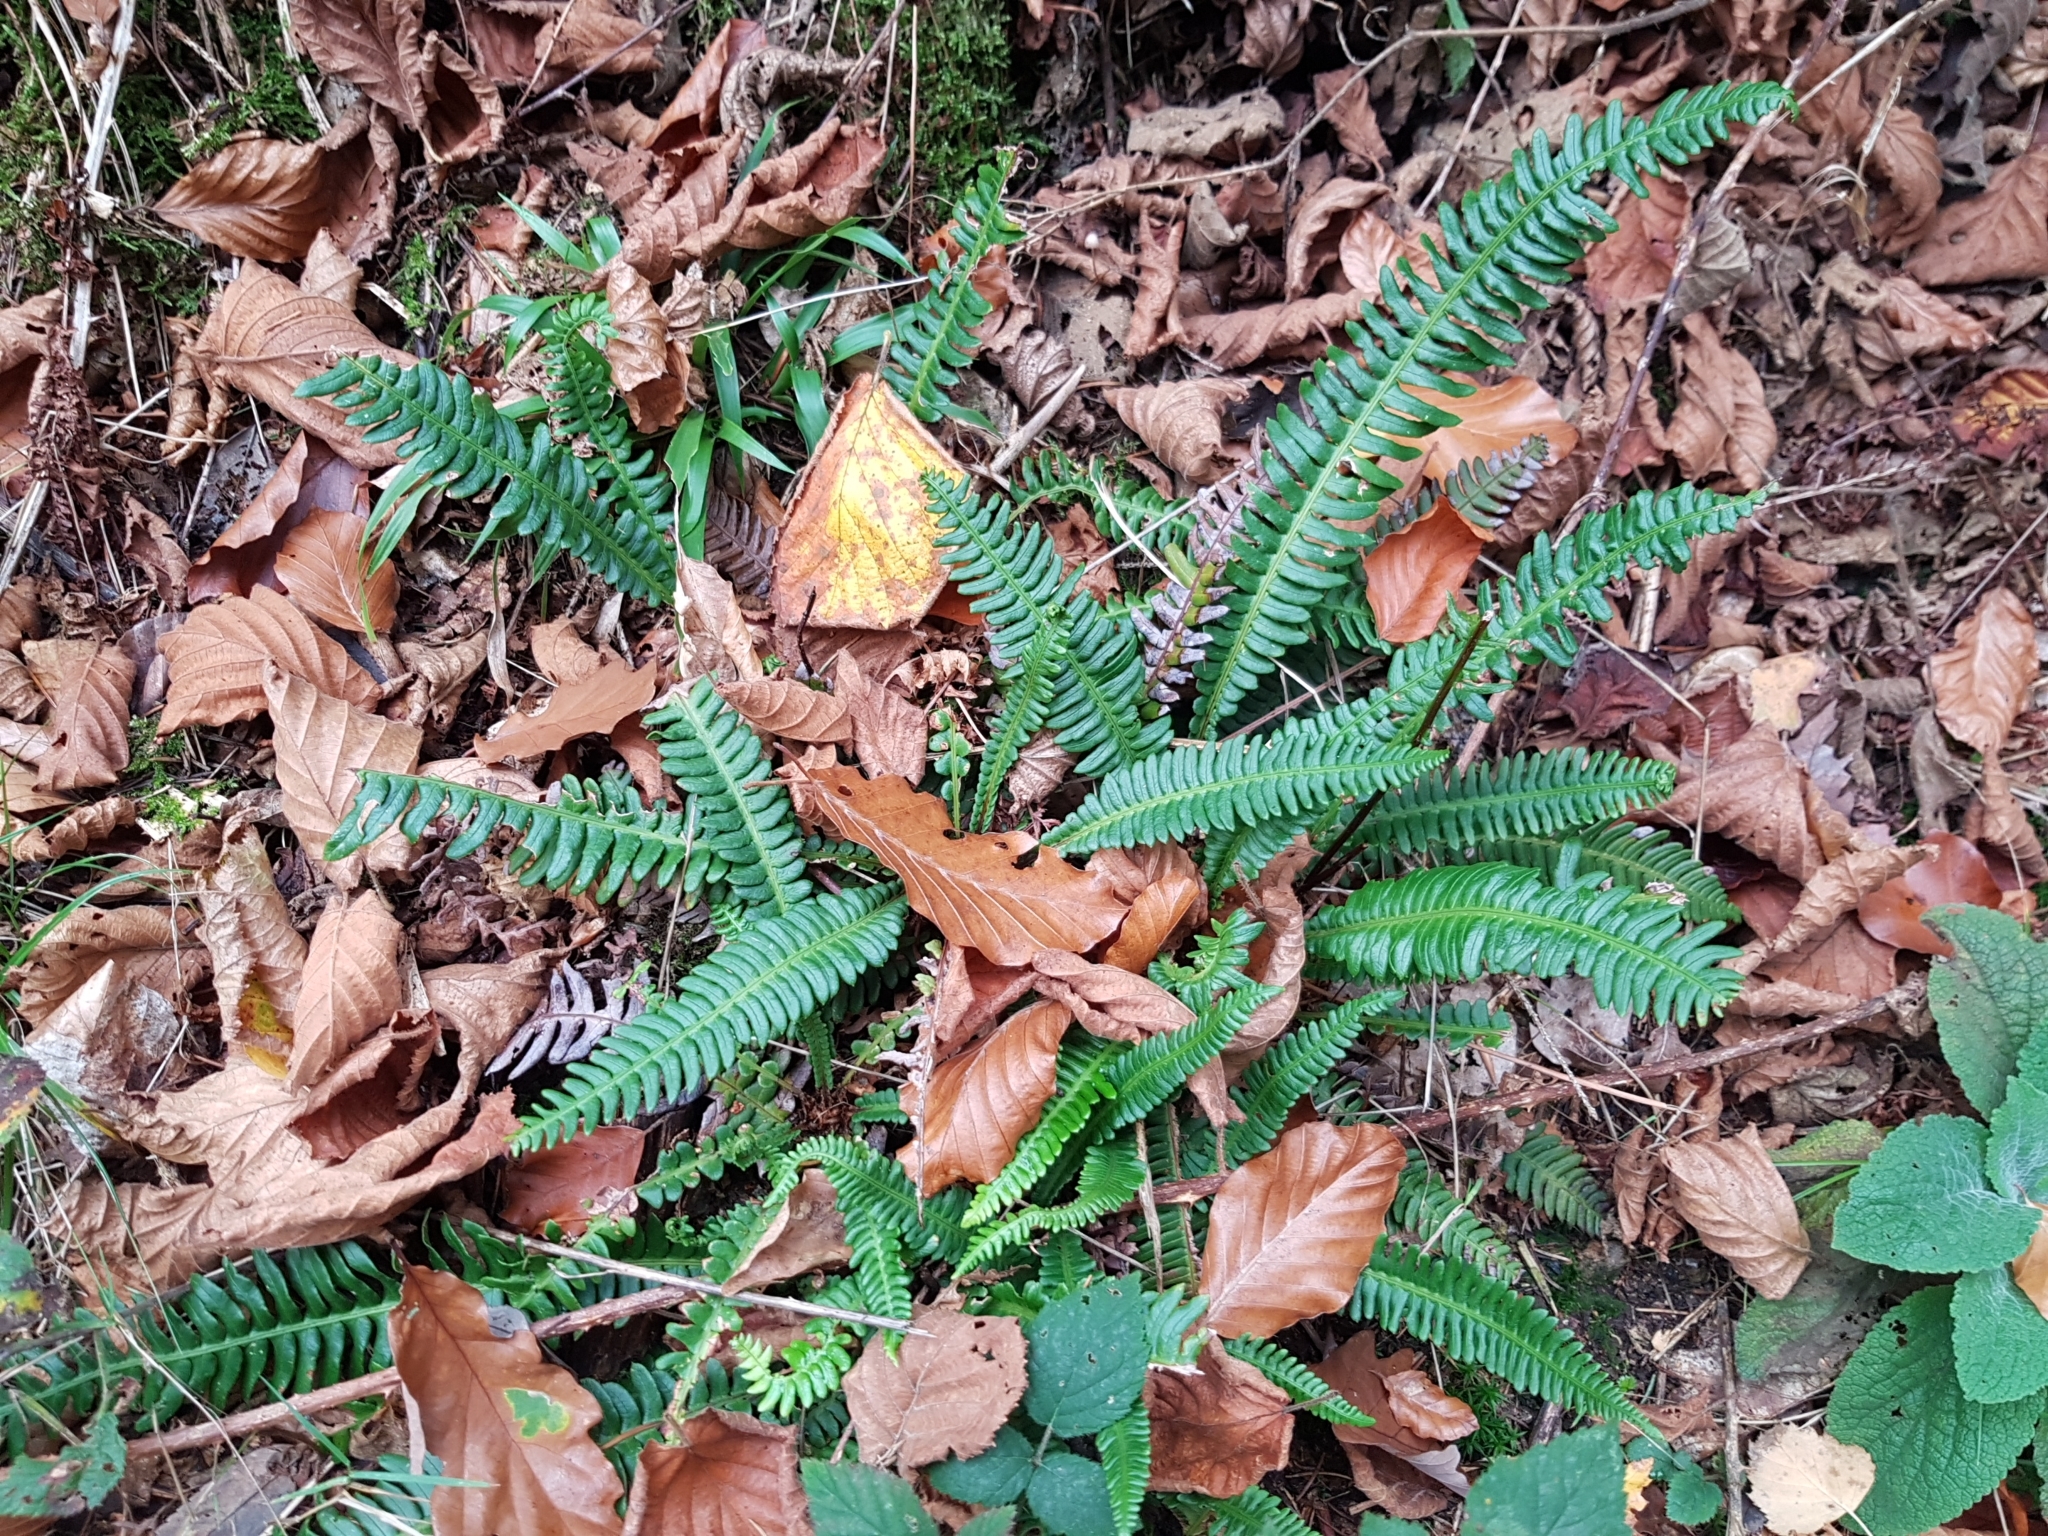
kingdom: Plantae
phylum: Tracheophyta
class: Polypodiopsida
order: Polypodiales
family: Blechnaceae
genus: Struthiopteris
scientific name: Struthiopteris spicant
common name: Deer fern
